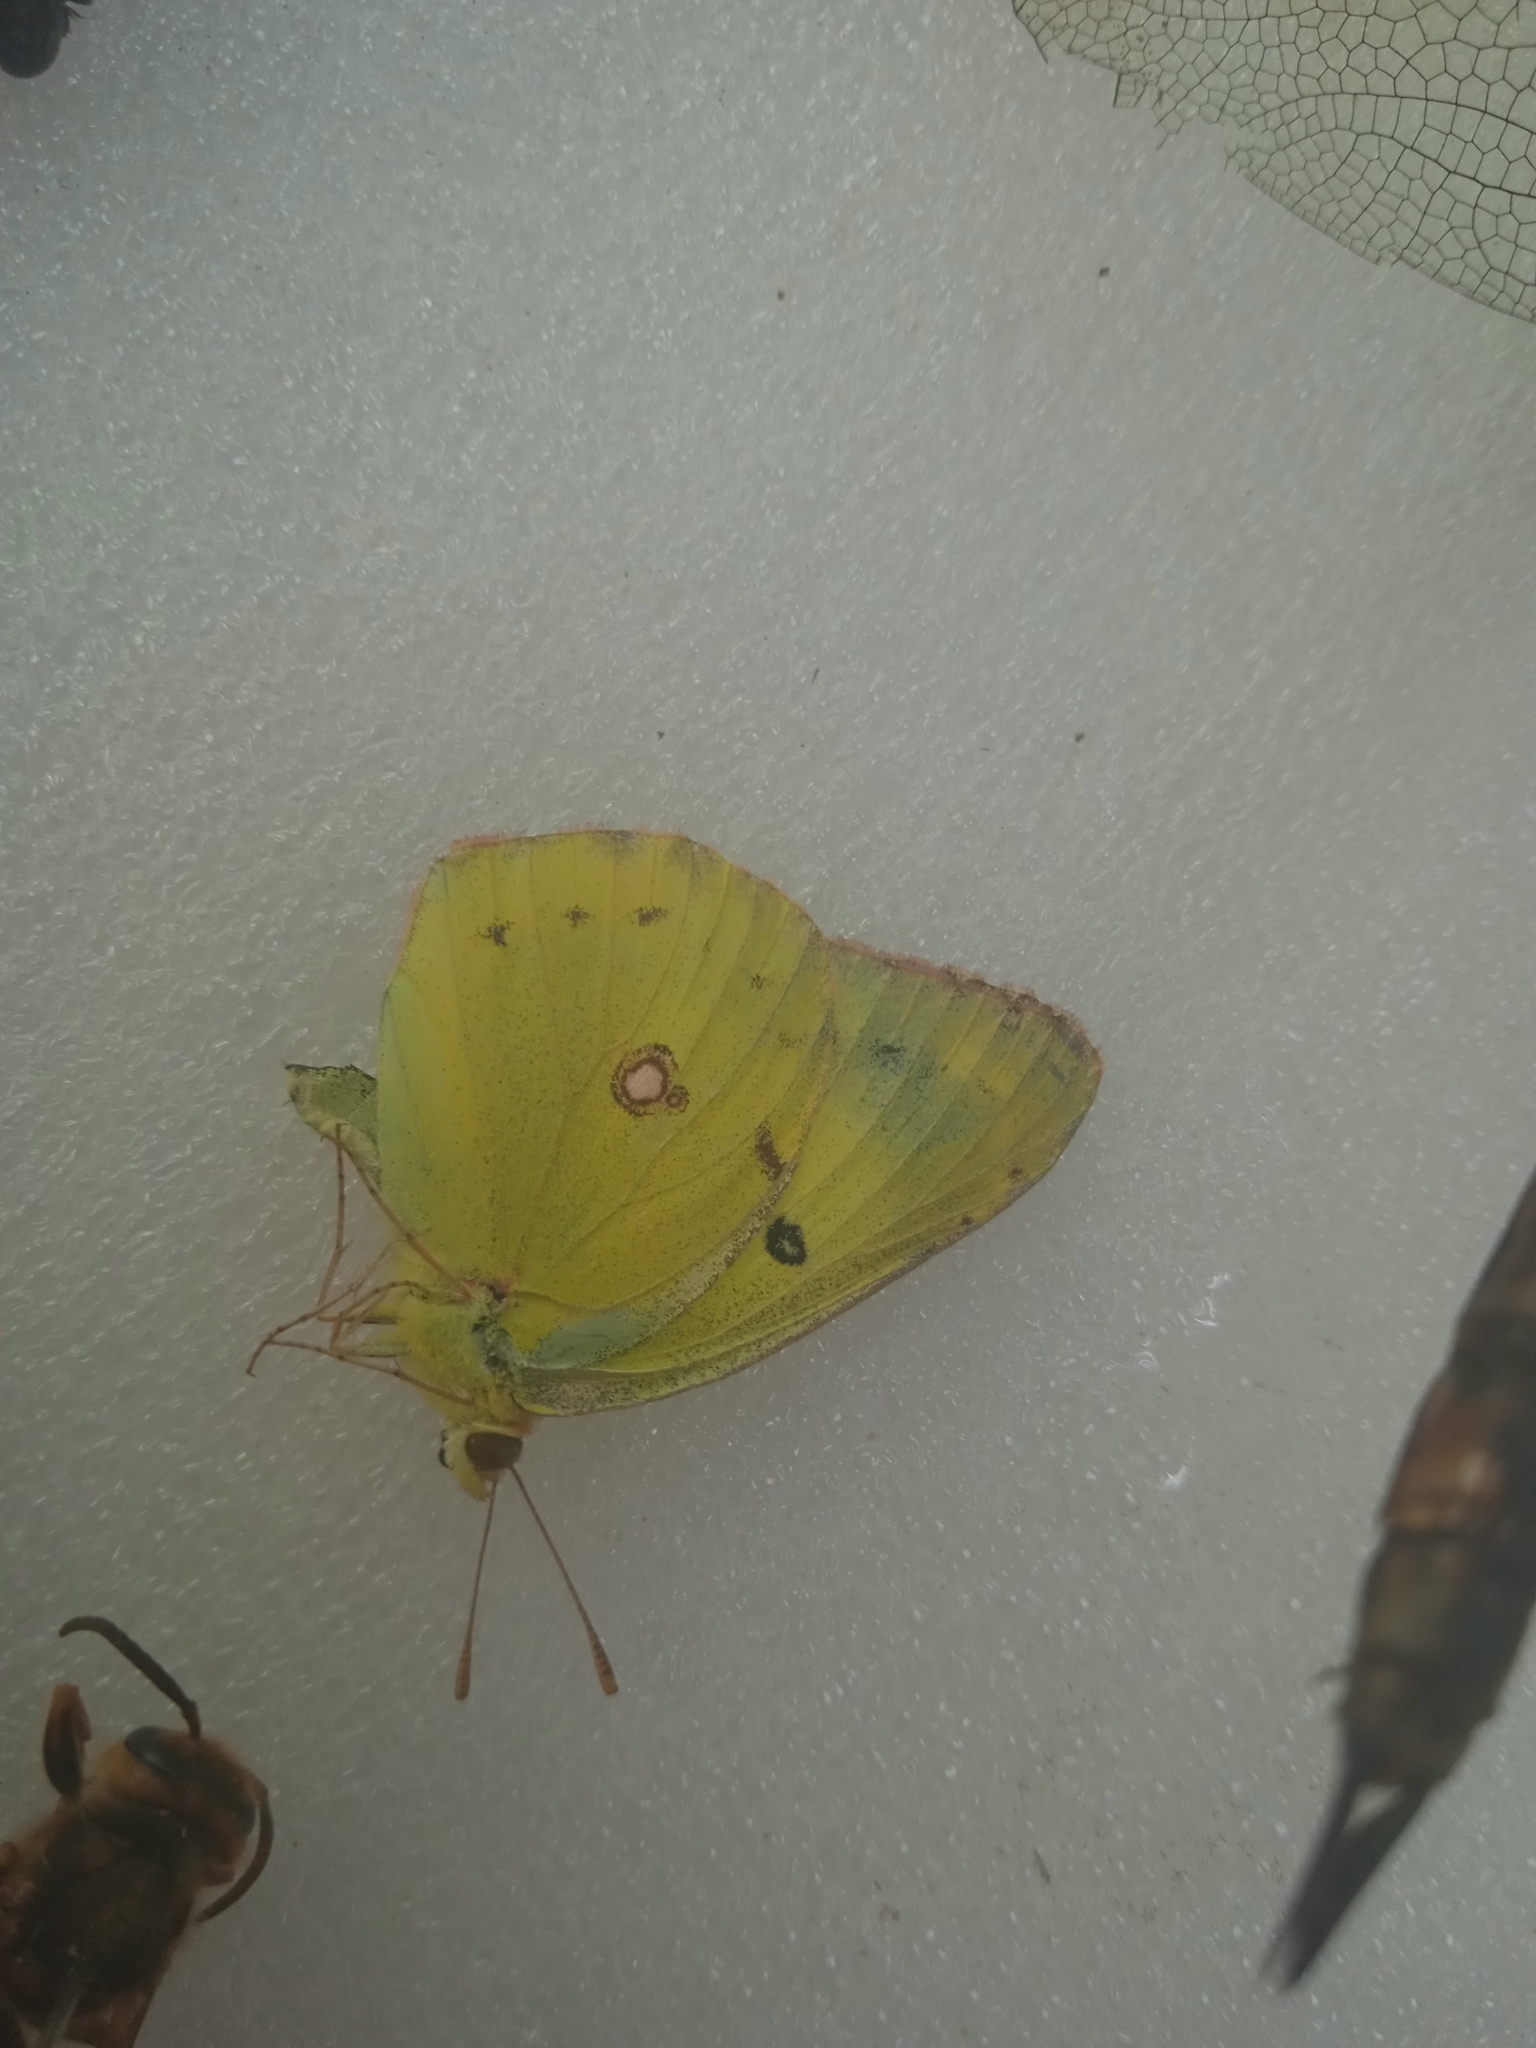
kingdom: Animalia
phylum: Arthropoda
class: Insecta
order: Lepidoptera
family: Pieridae
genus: Colias
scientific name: Colias poliographus
